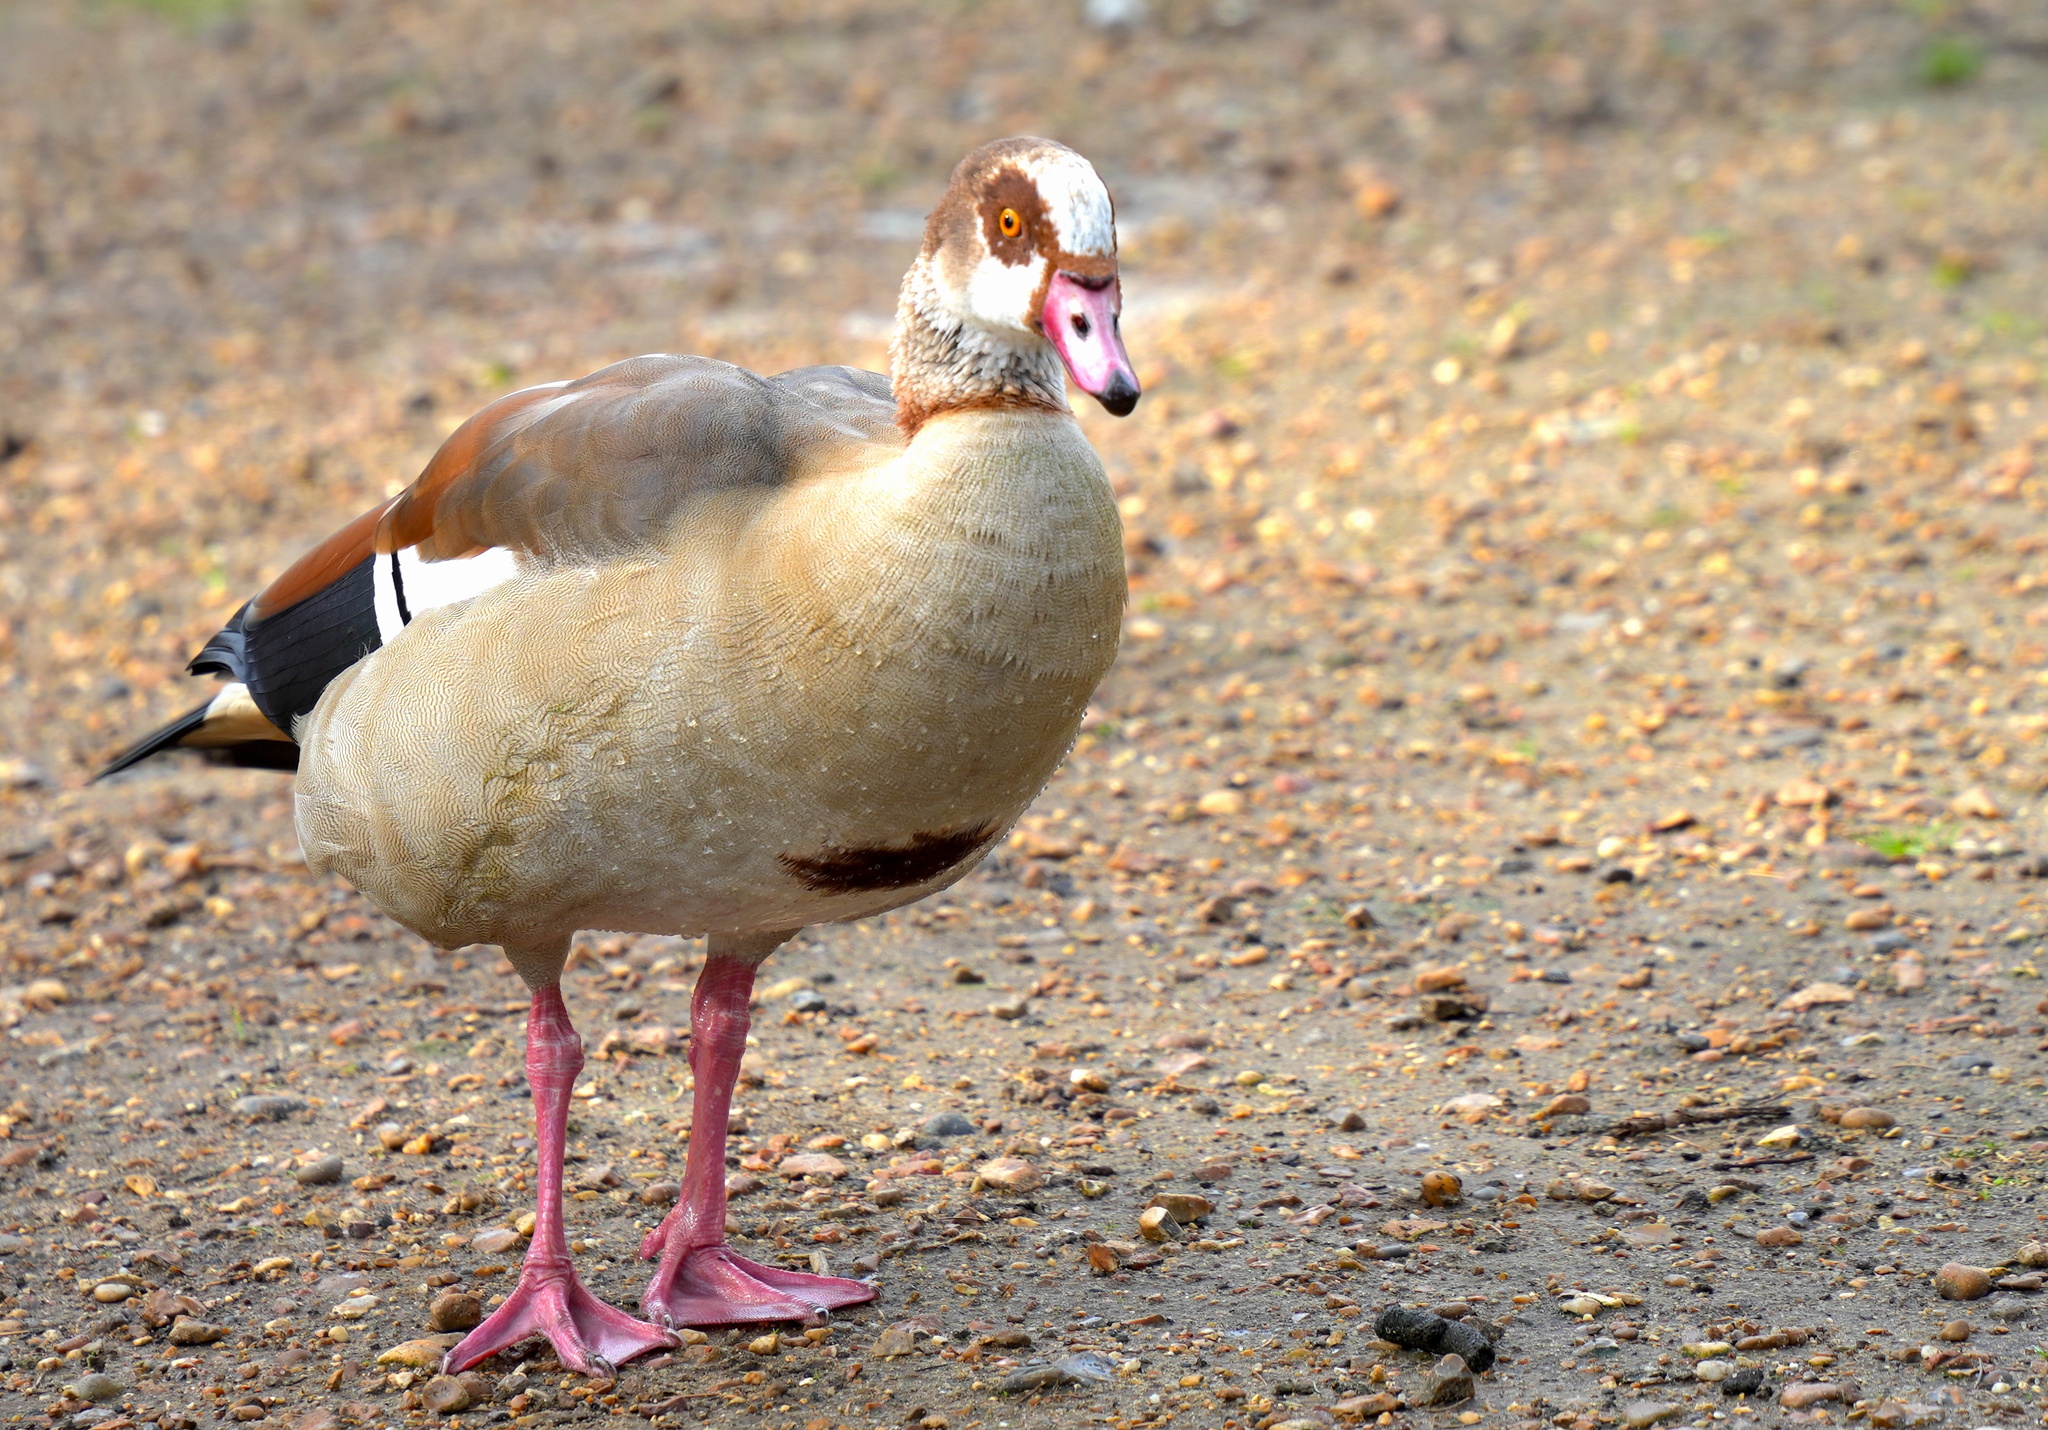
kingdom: Animalia
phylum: Chordata
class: Aves
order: Anseriformes
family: Anatidae
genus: Alopochen
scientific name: Alopochen aegyptiaca
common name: Egyptian goose
